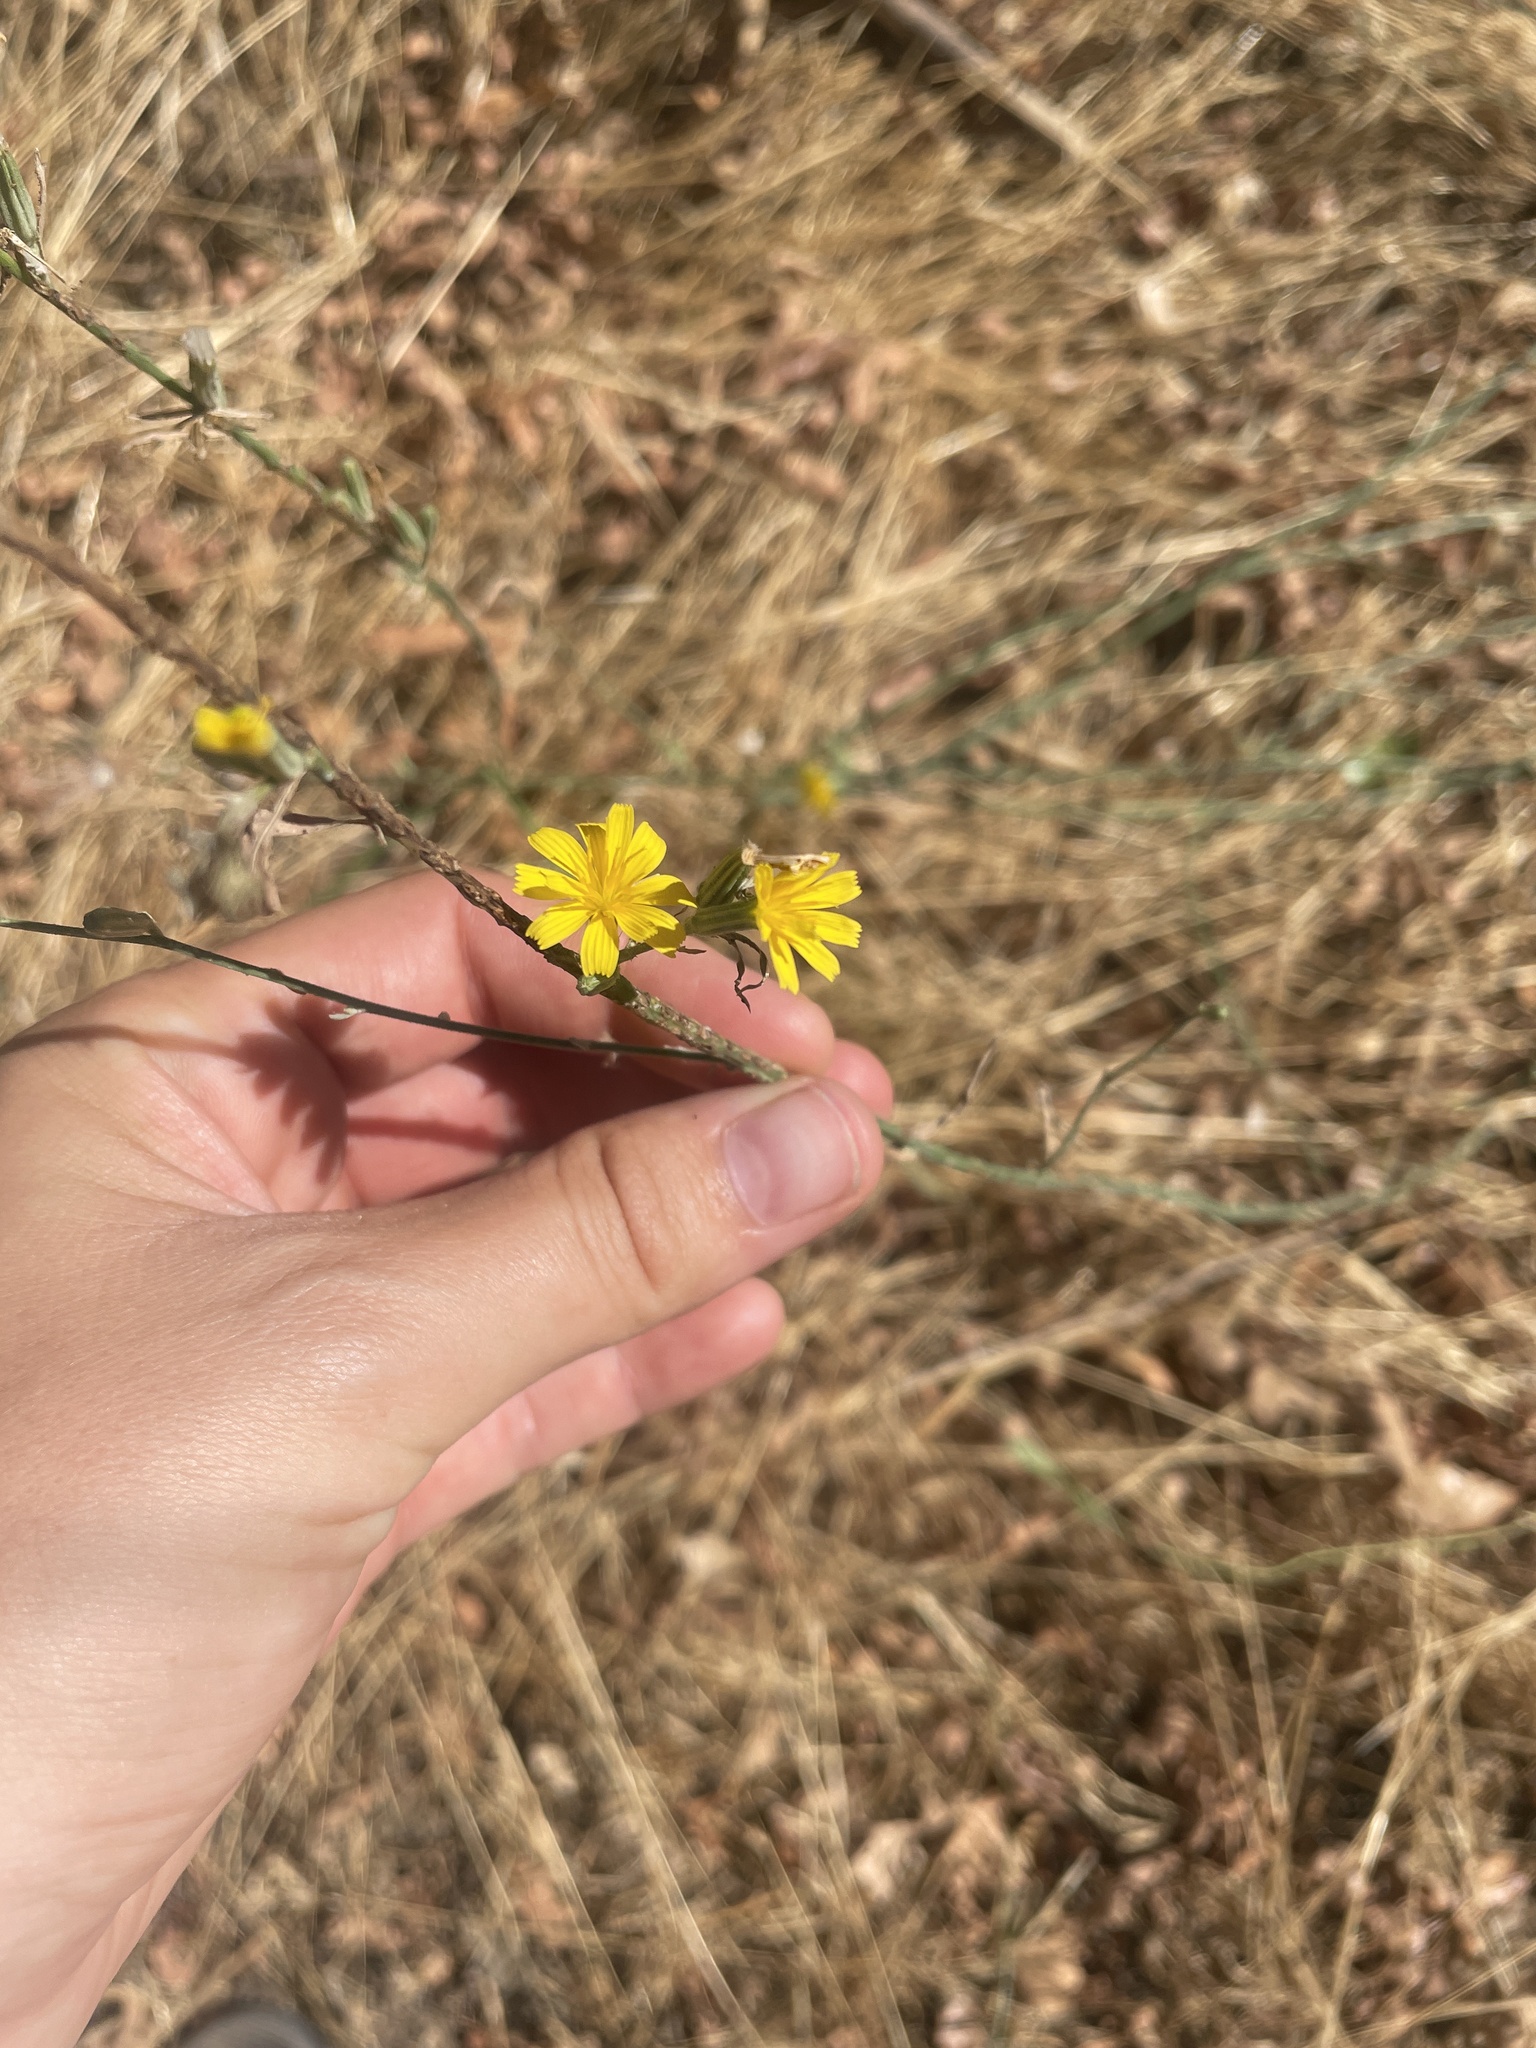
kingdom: Plantae
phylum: Tracheophyta
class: Magnoliopsida
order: Asterales
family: Asteraceae
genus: Chondrilla
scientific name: Chondrilla juncea
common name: Skeleton weed
